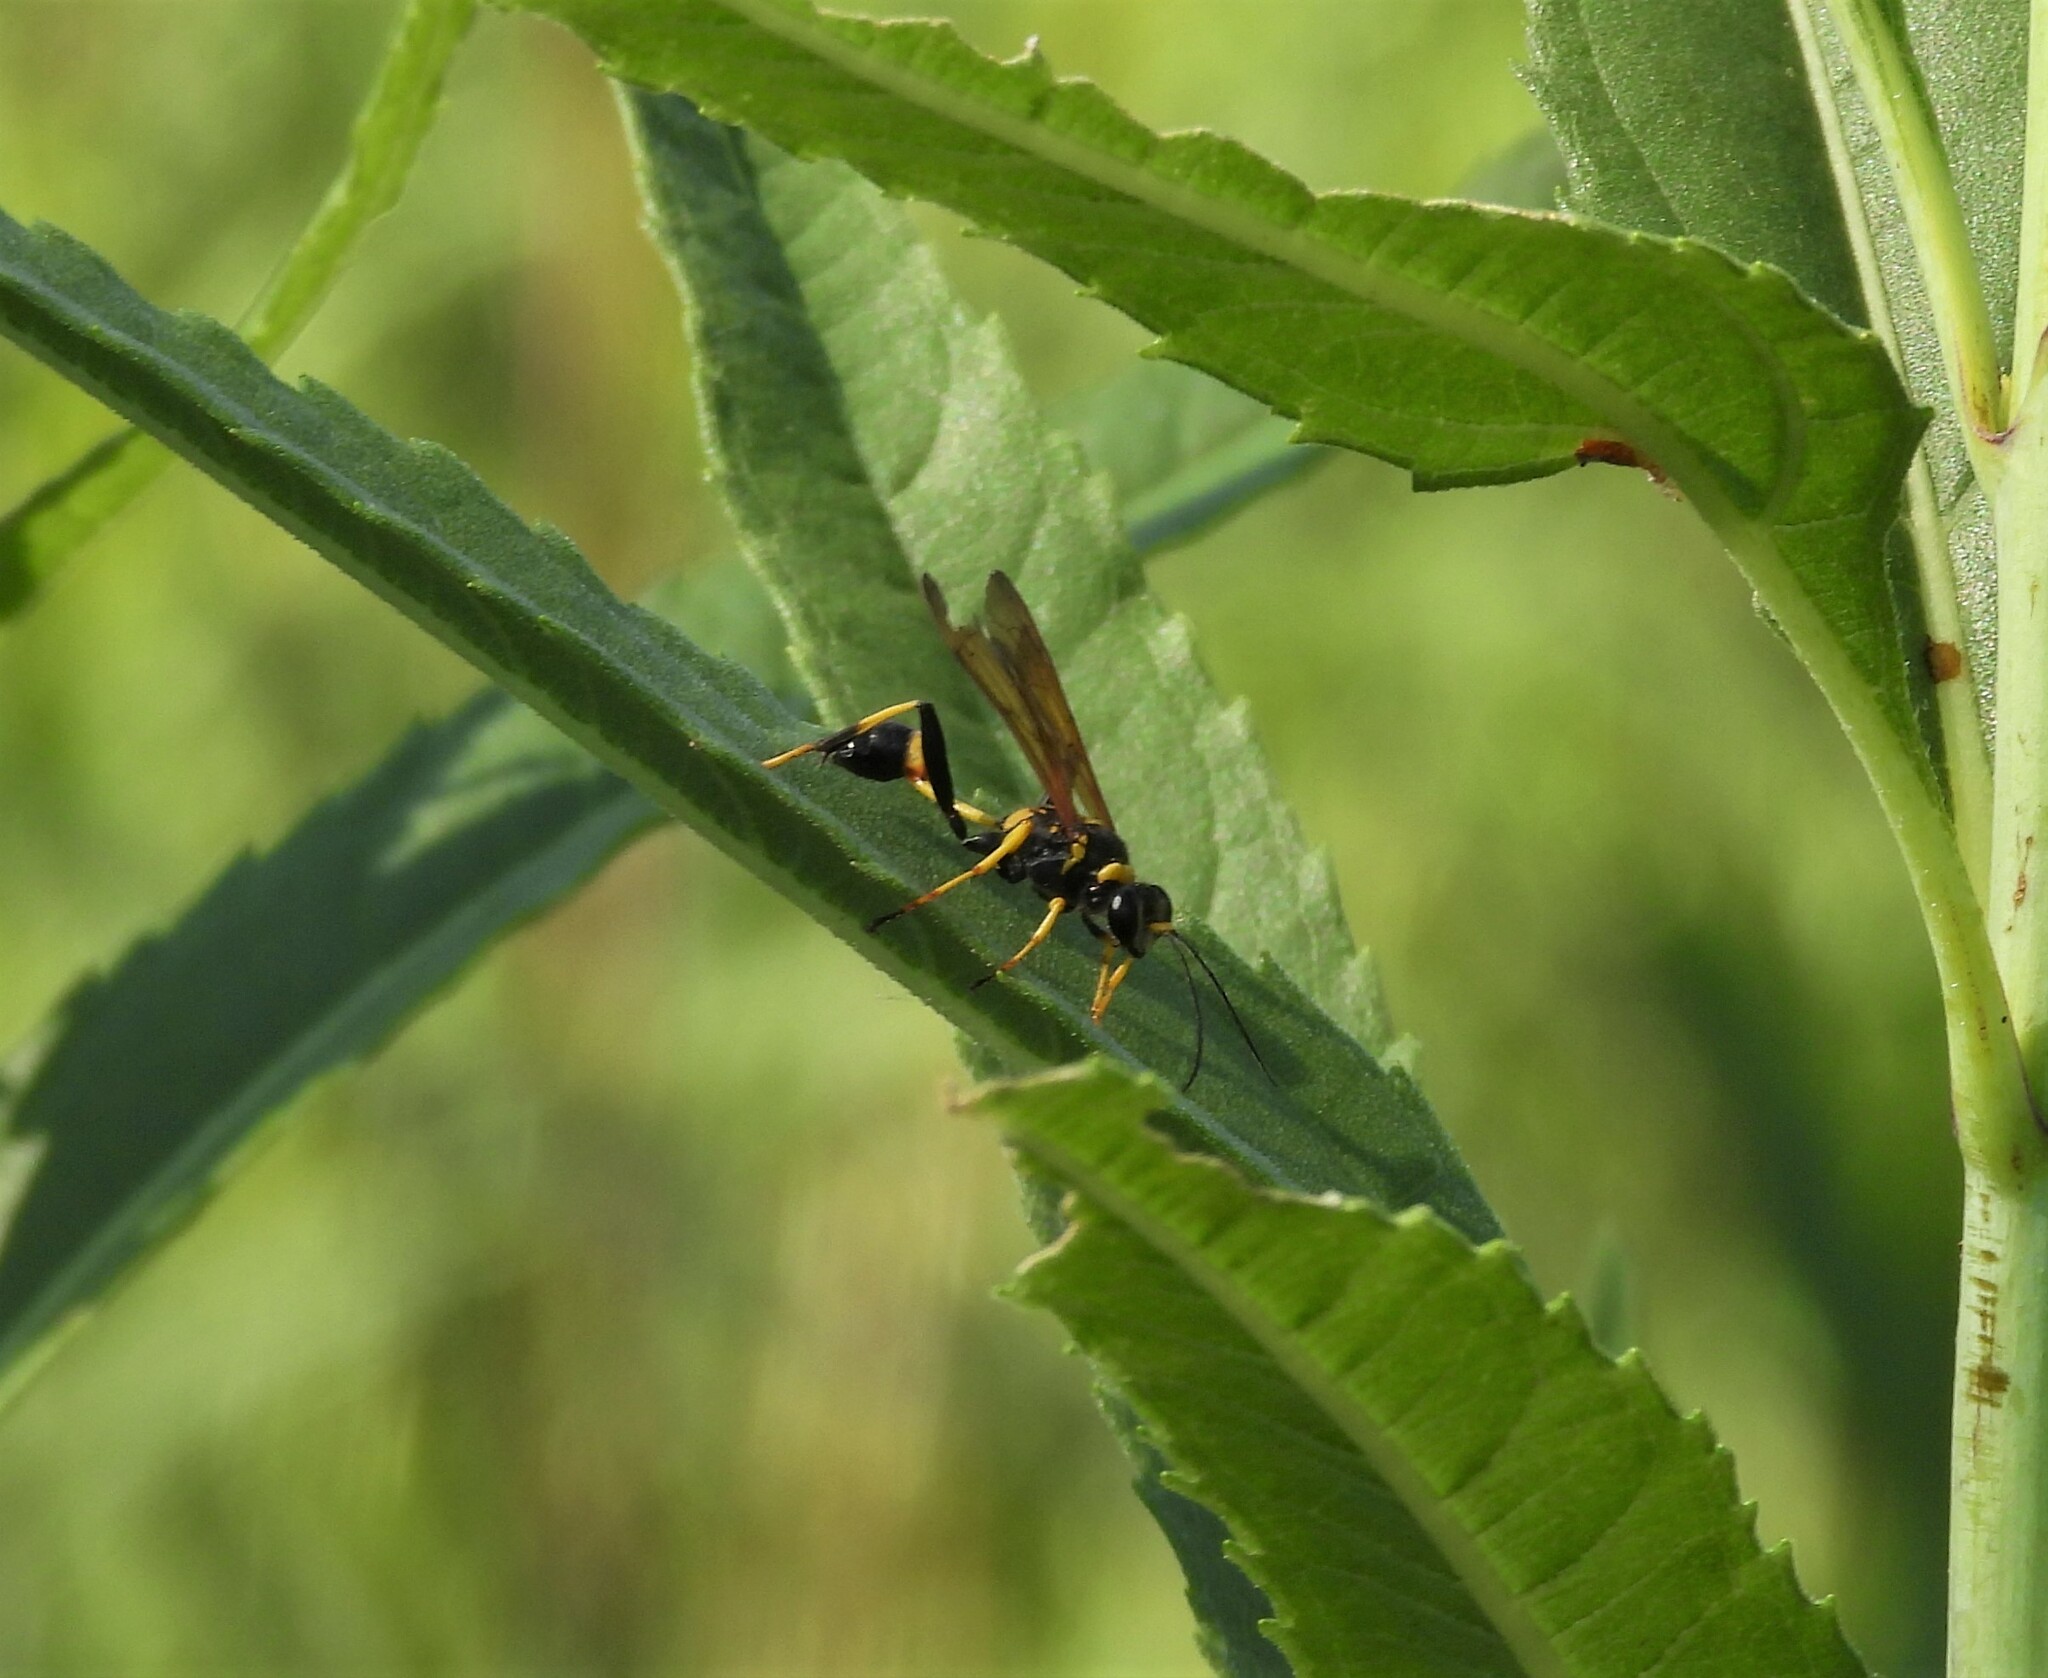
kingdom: Animalia
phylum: Arthropoda
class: Insecta
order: Hymenoptera
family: Sphecidae
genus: Sceliphron
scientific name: Sceliphron caementarium
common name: Mud dauber
